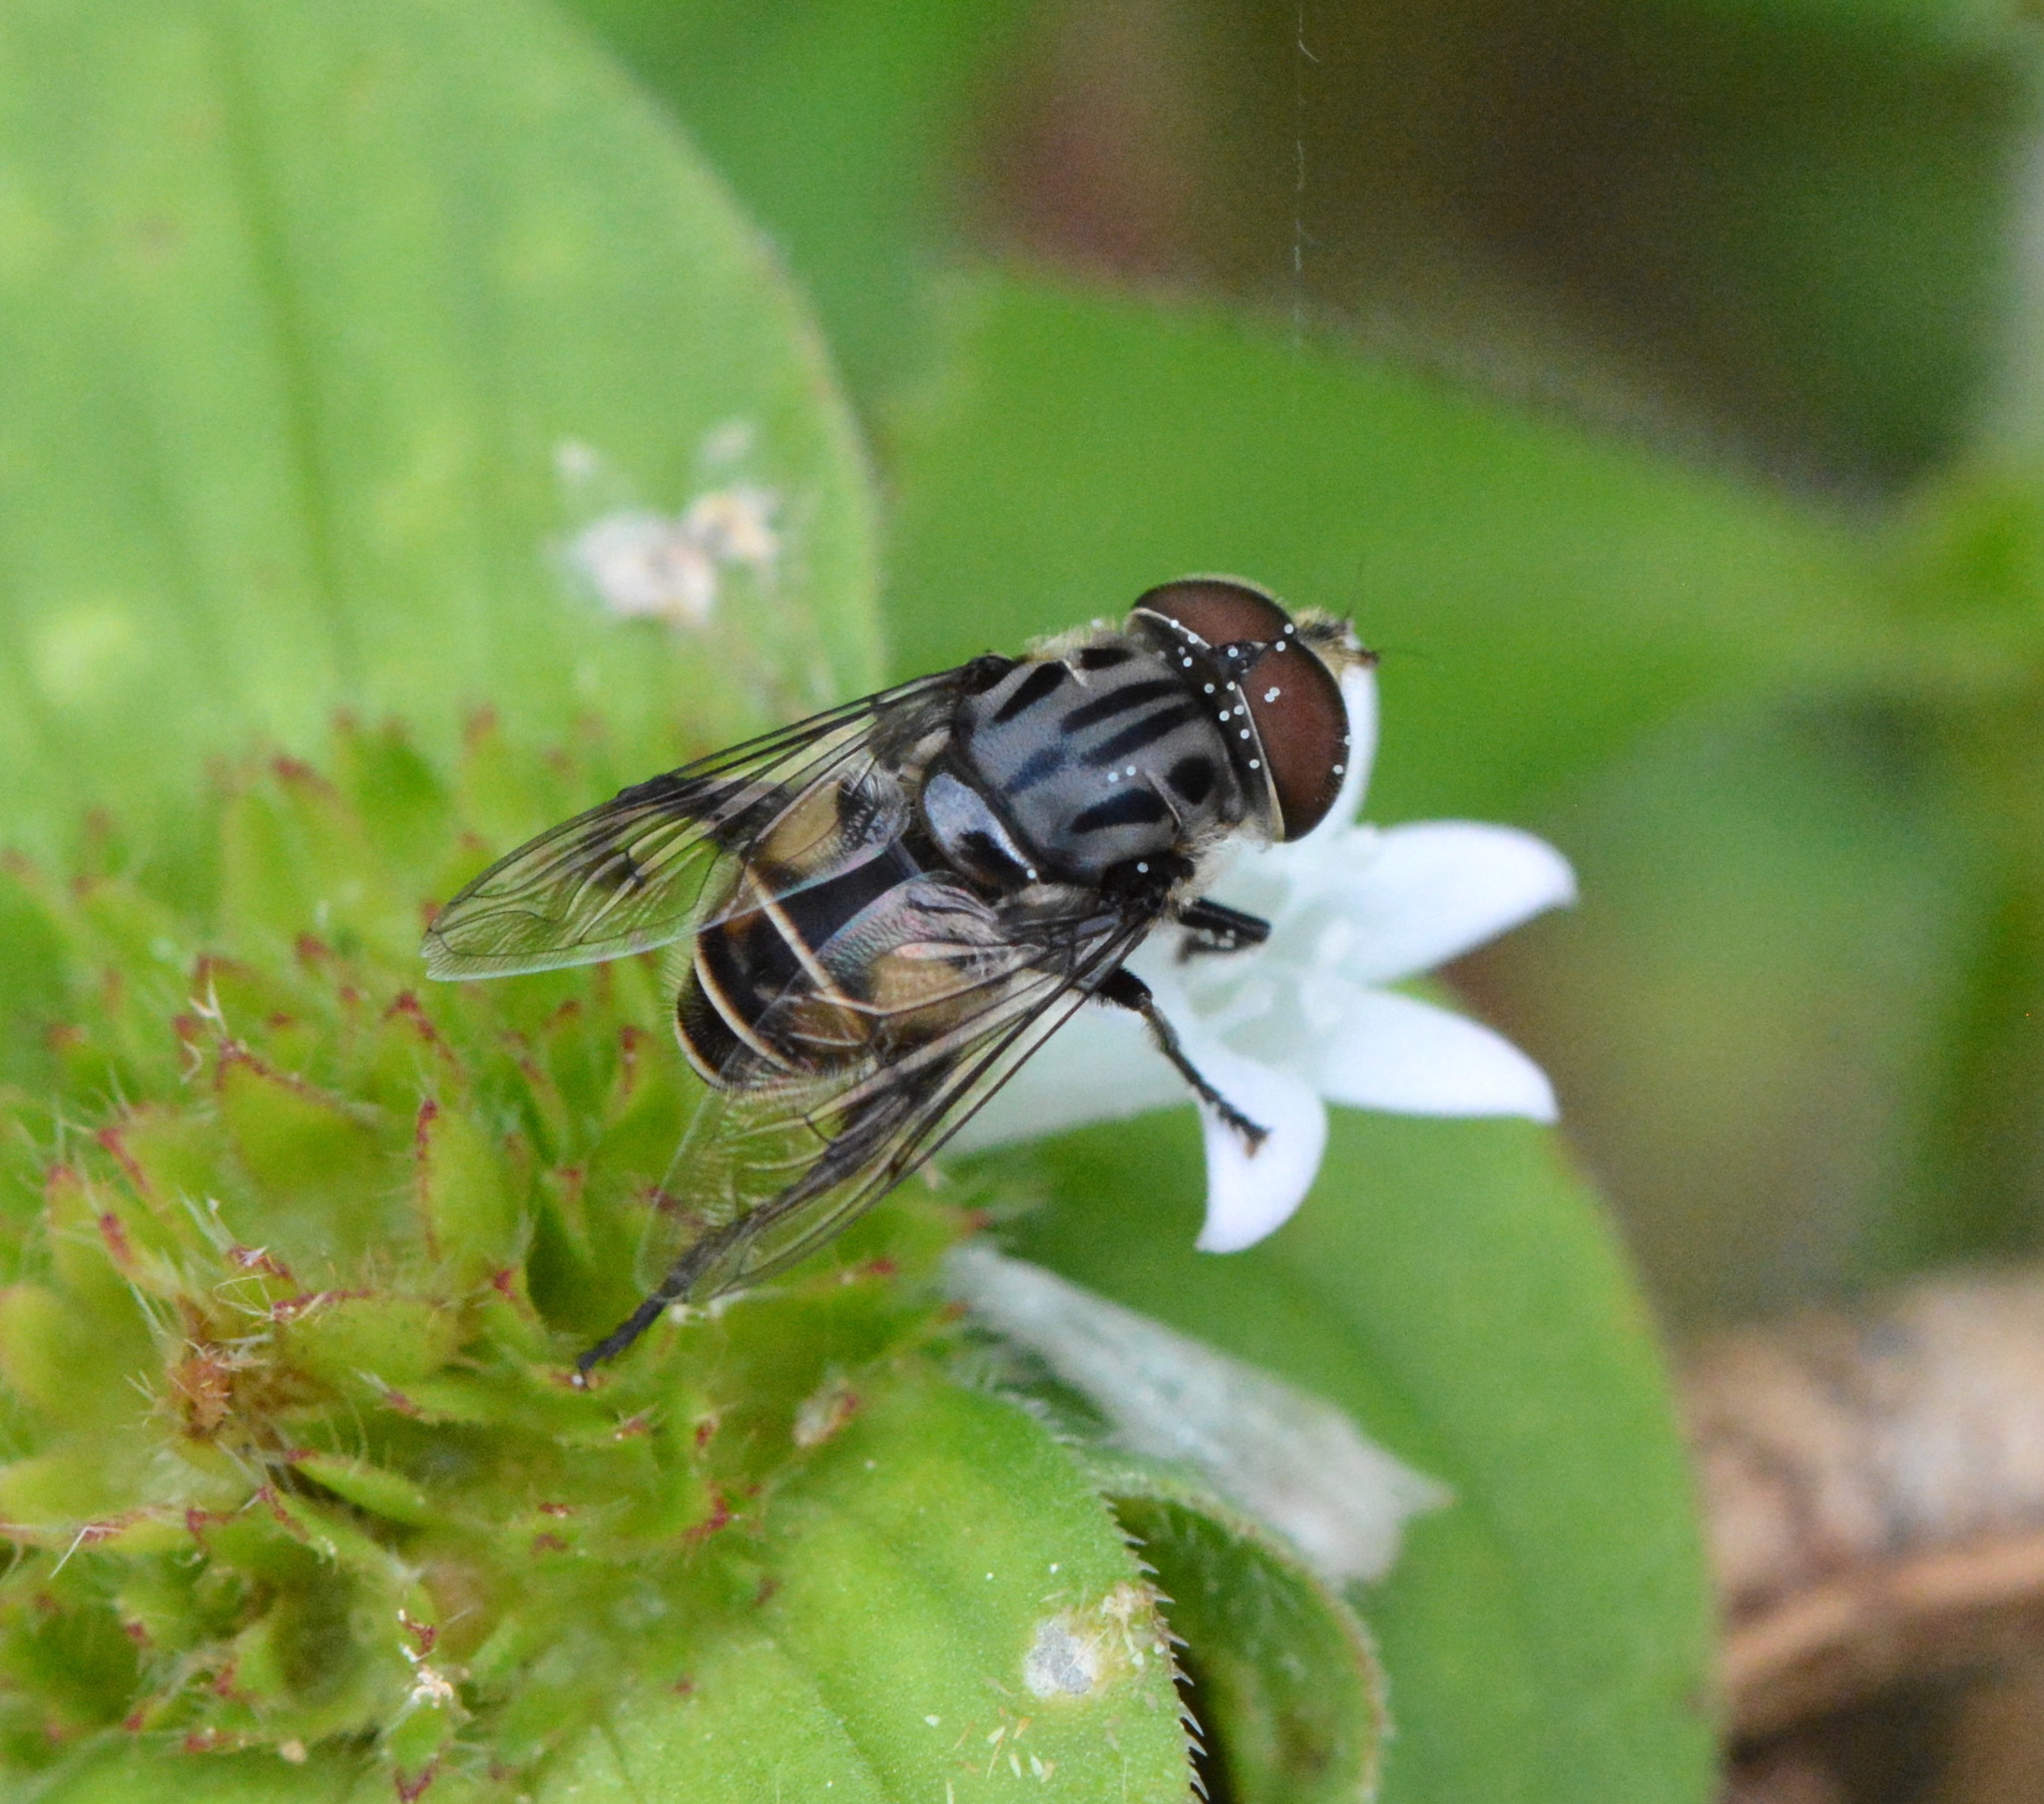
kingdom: Animalia
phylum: Arthropoda
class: Insecta
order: Diptera
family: Syrphidae
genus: Palpada
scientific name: Palpada furcata
